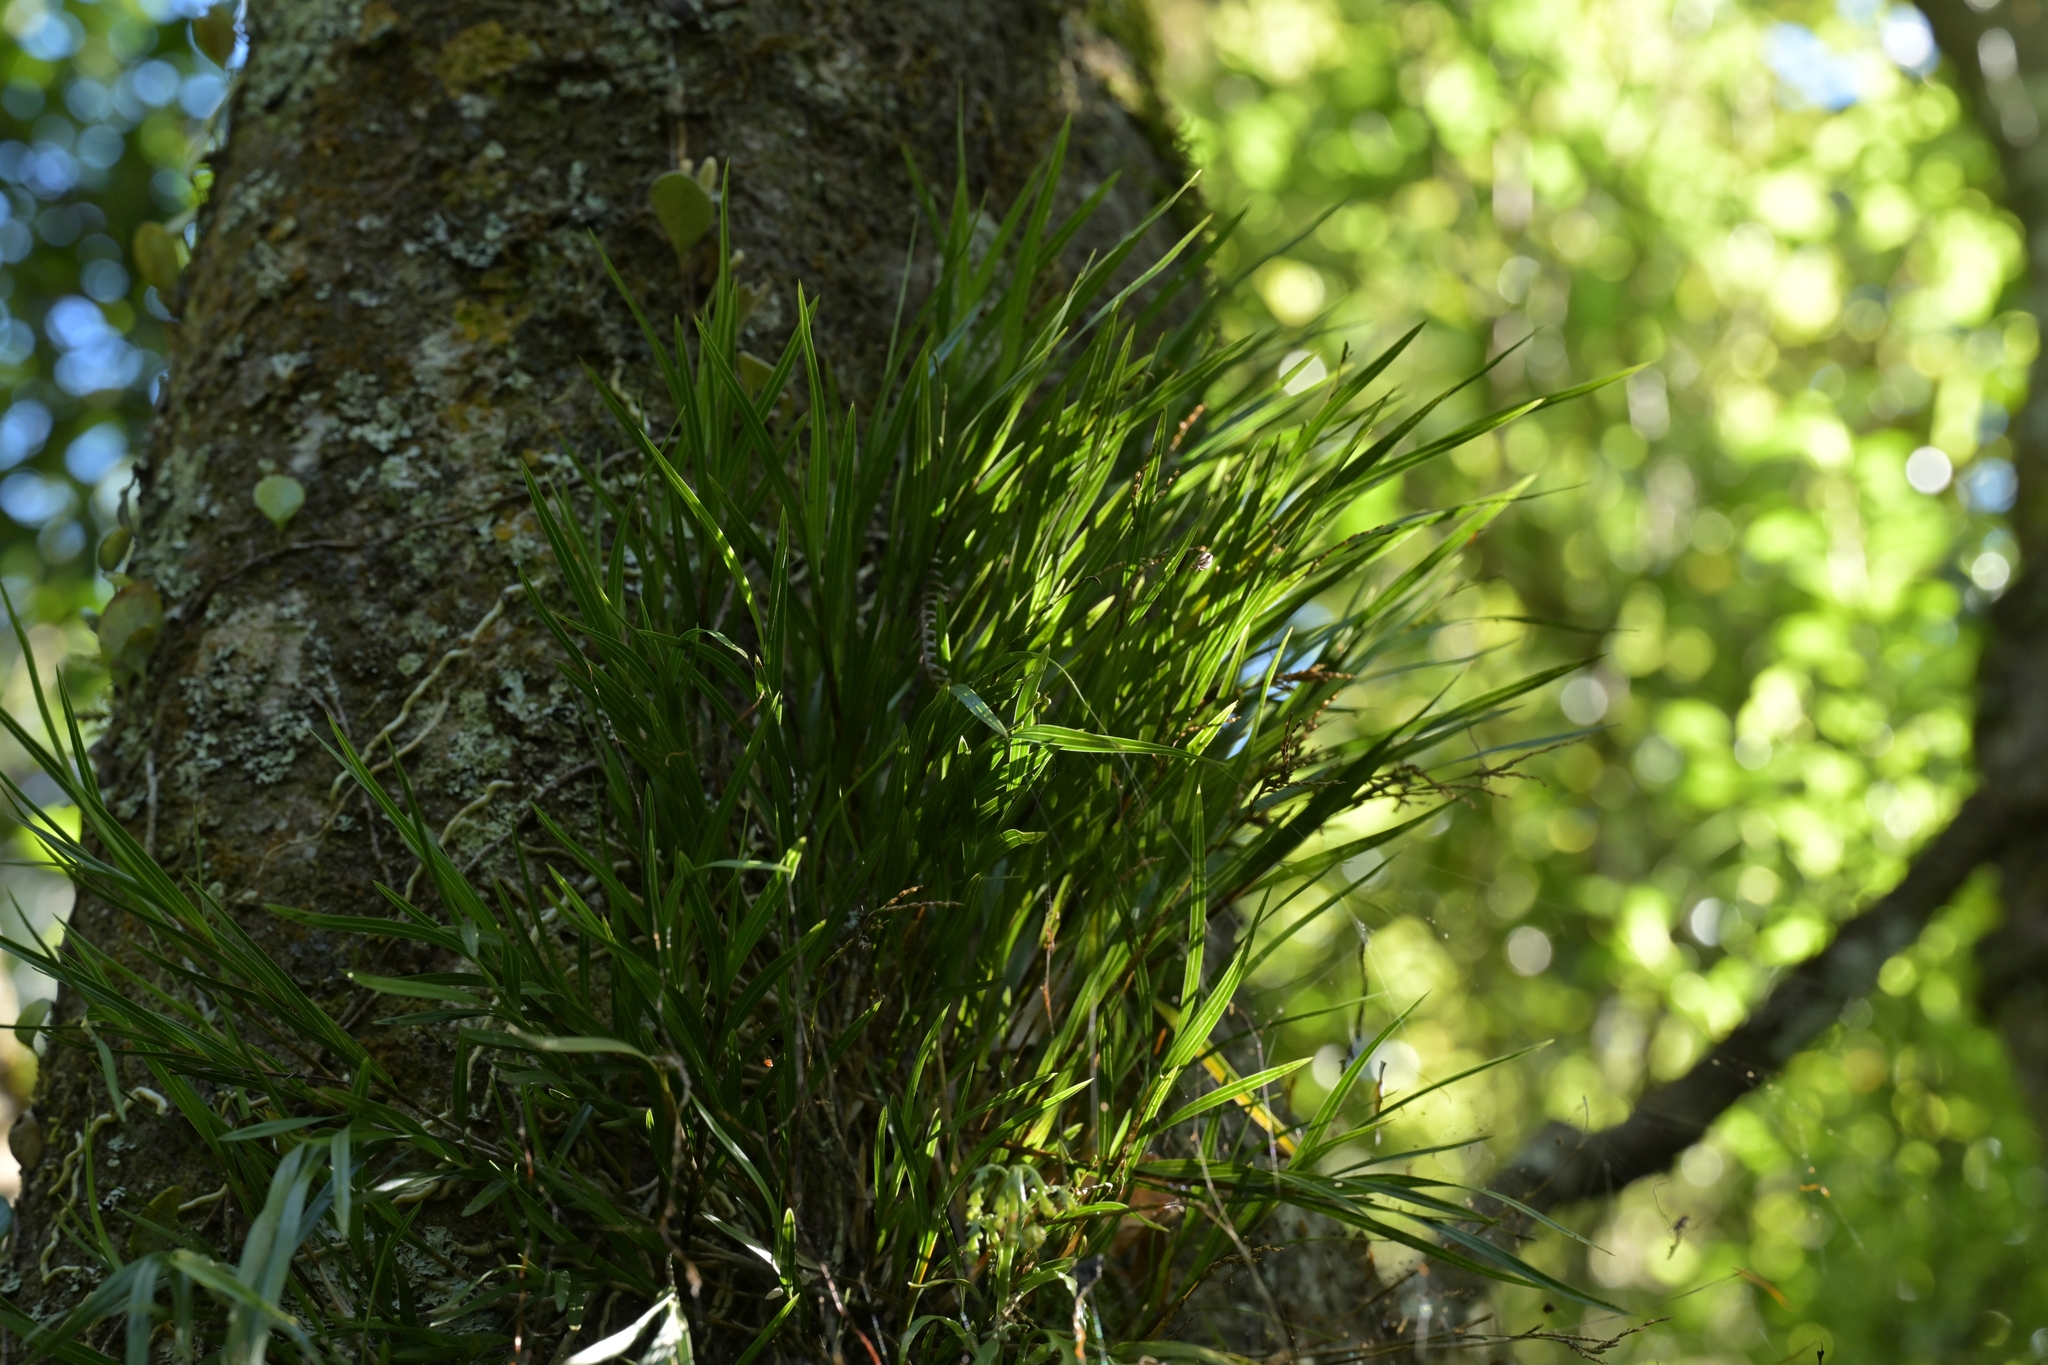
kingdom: Plantae
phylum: Tracheophyta
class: Liliopsida
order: Asparagales
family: Orchidaceae
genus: Earina
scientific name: Earina mucronata
